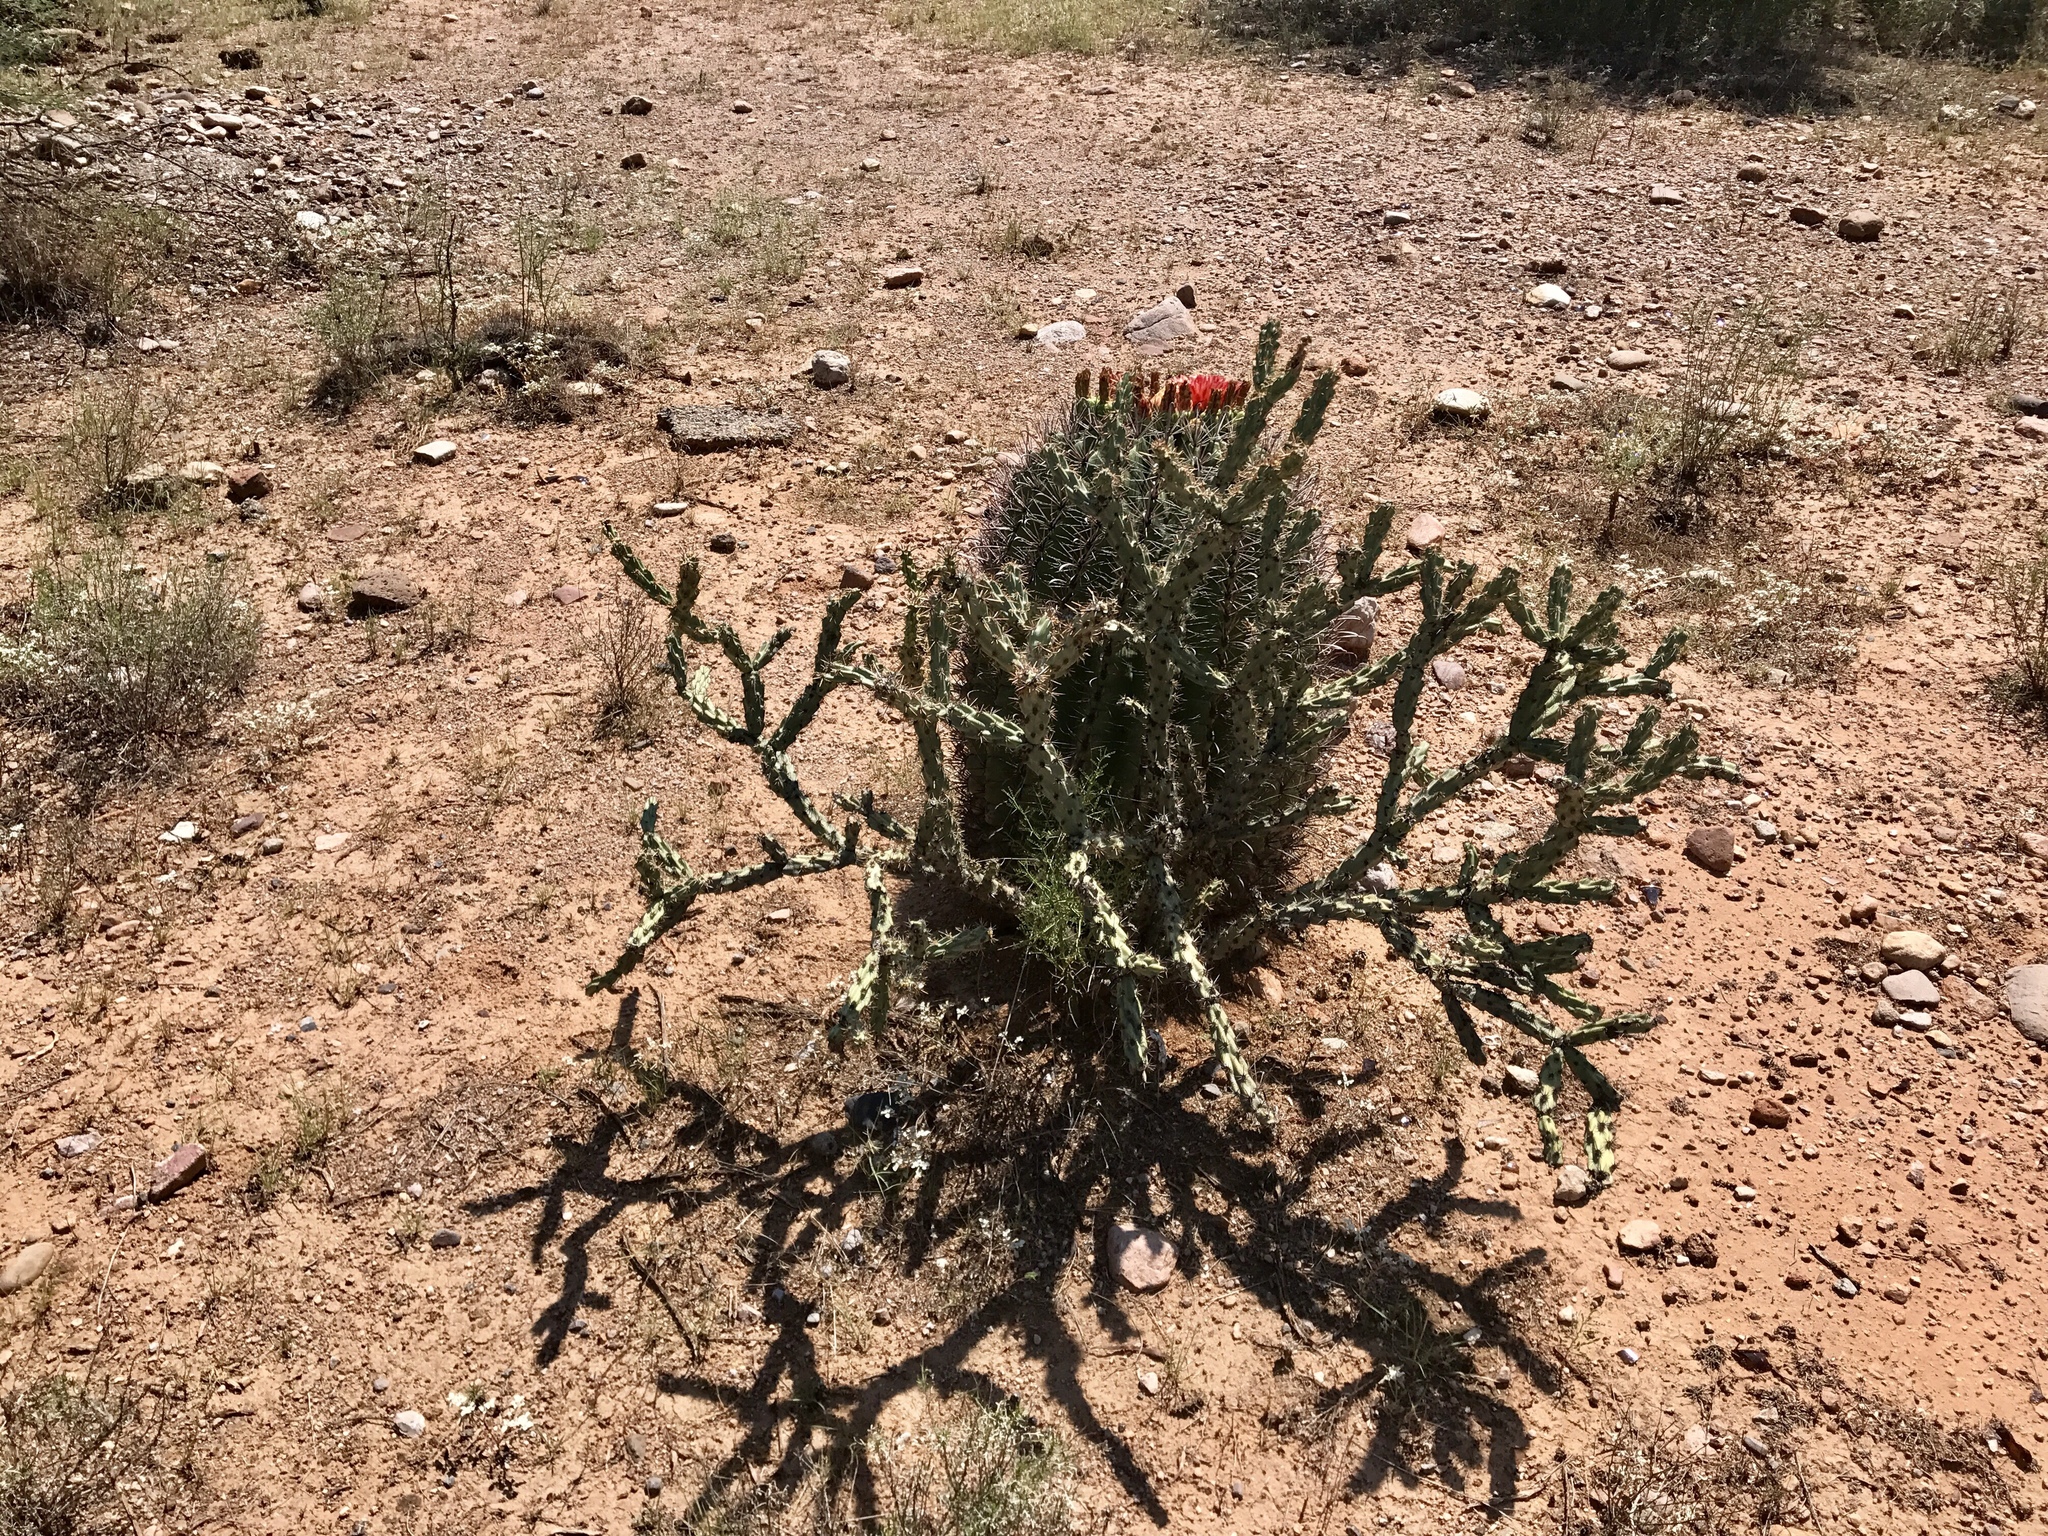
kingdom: Plantae
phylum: Tracheophyta
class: Magnoliopsida
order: Caryophyllales
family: Cactaceae
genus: Cylindropuntia
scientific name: Cylindropuntia acanthocarpa
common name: Buckhorn cholla
